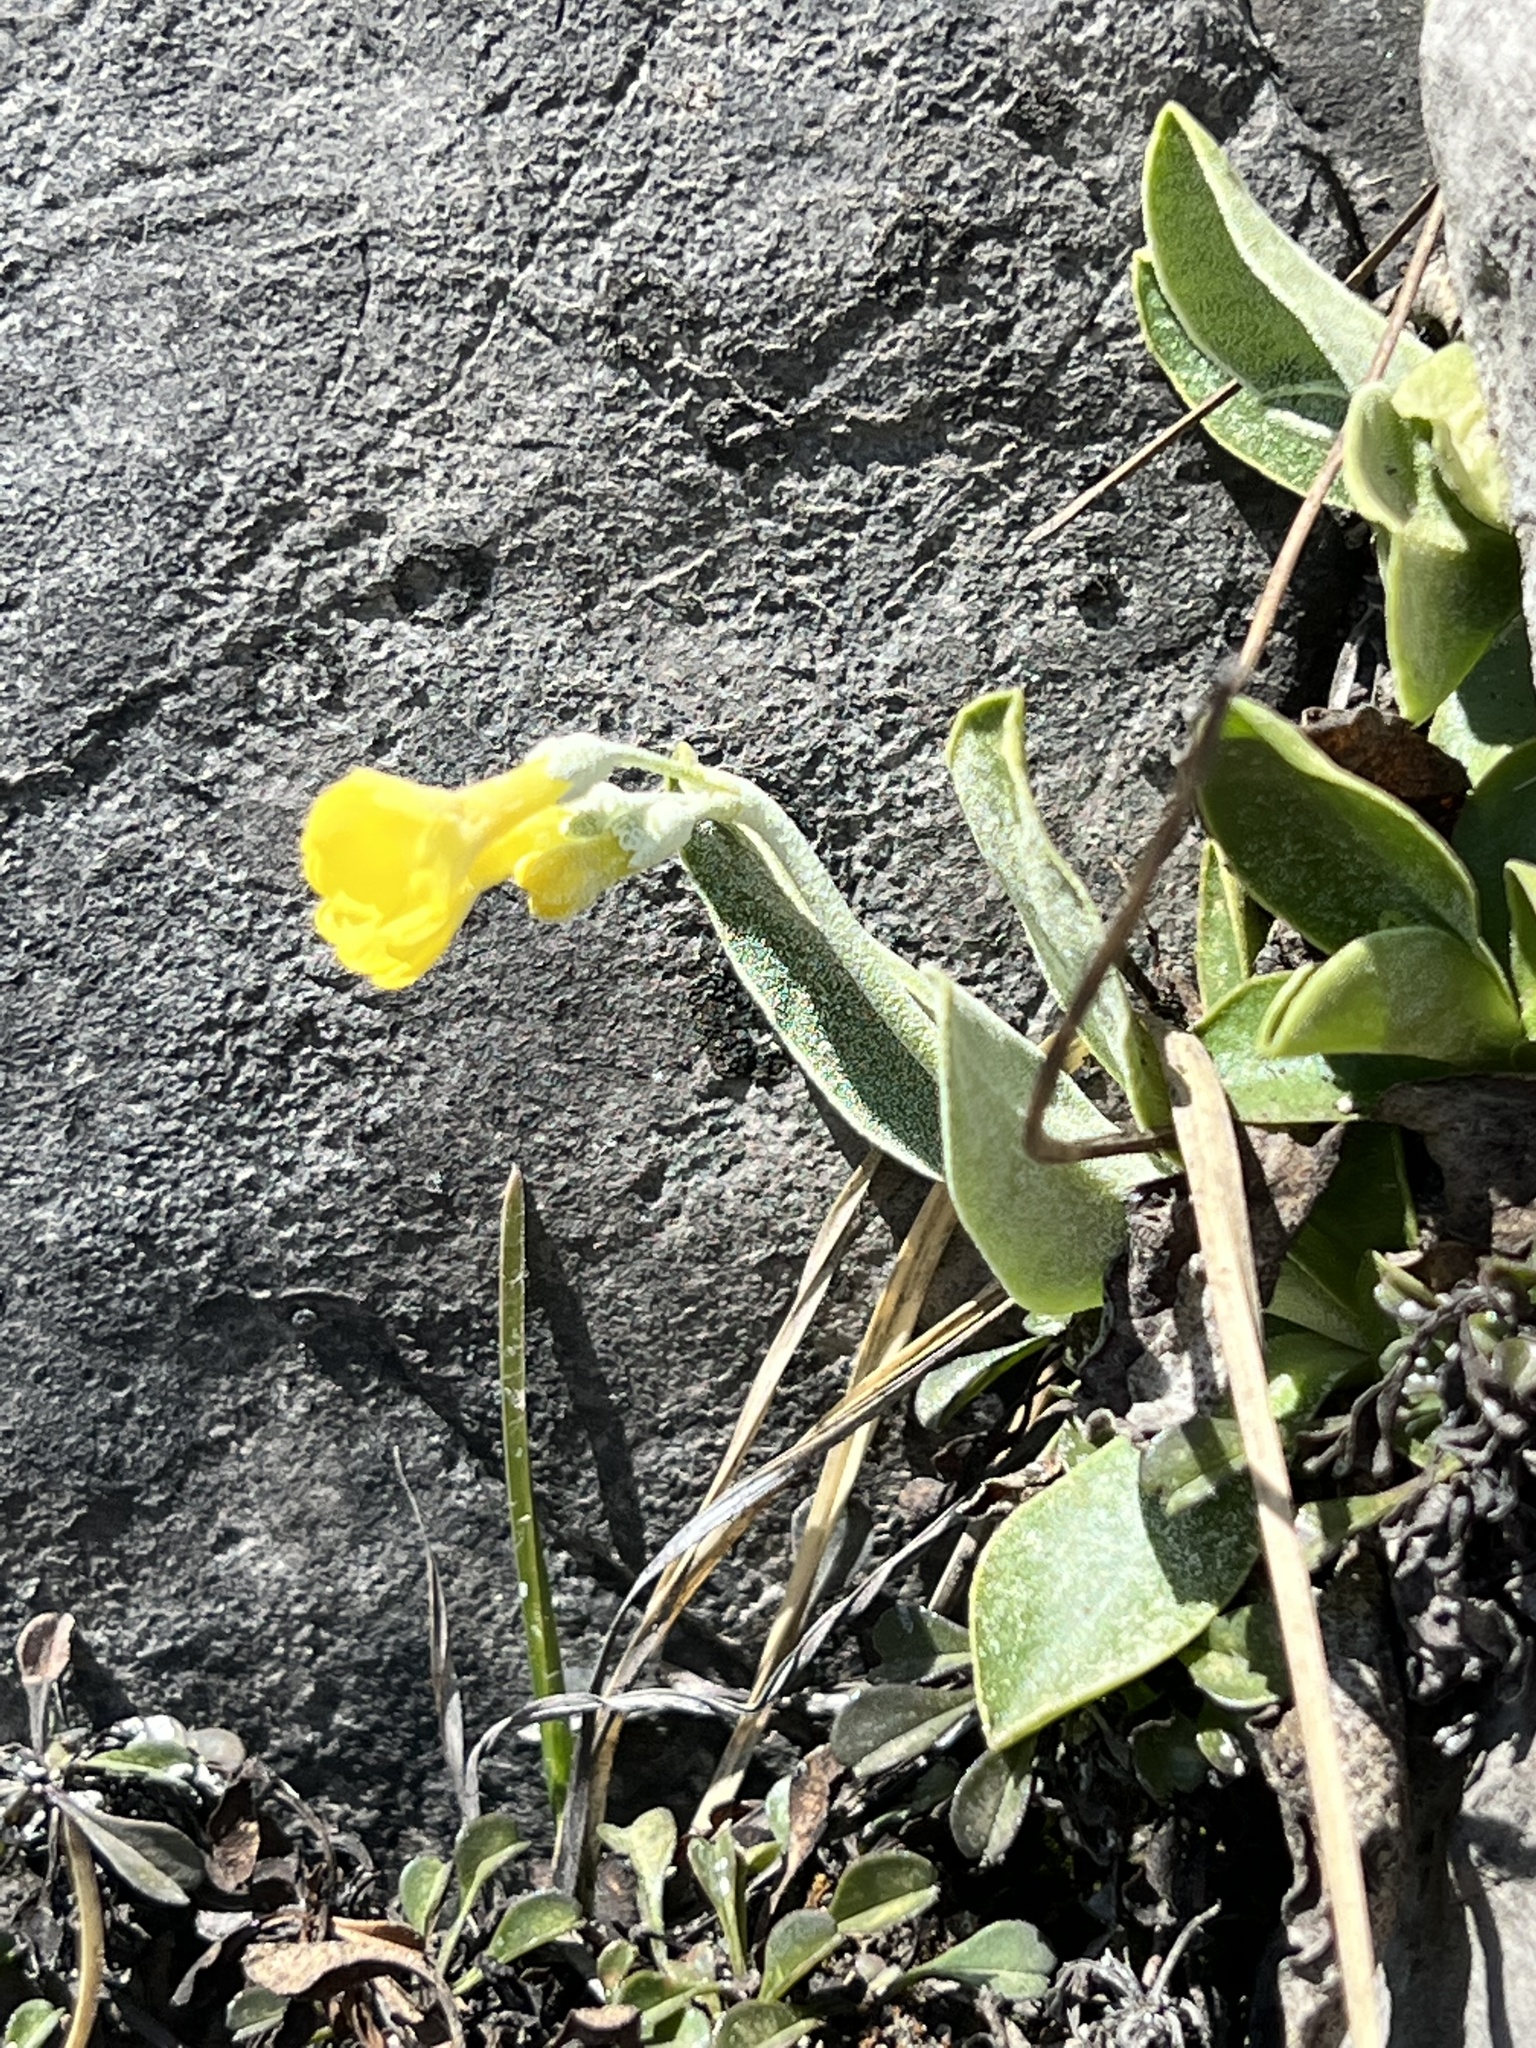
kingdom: Plantae
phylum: Tracheophyta
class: Magnoliopsida
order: Ericales
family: Primulaceae
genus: Primula
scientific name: Primula auricula
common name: Auricula
